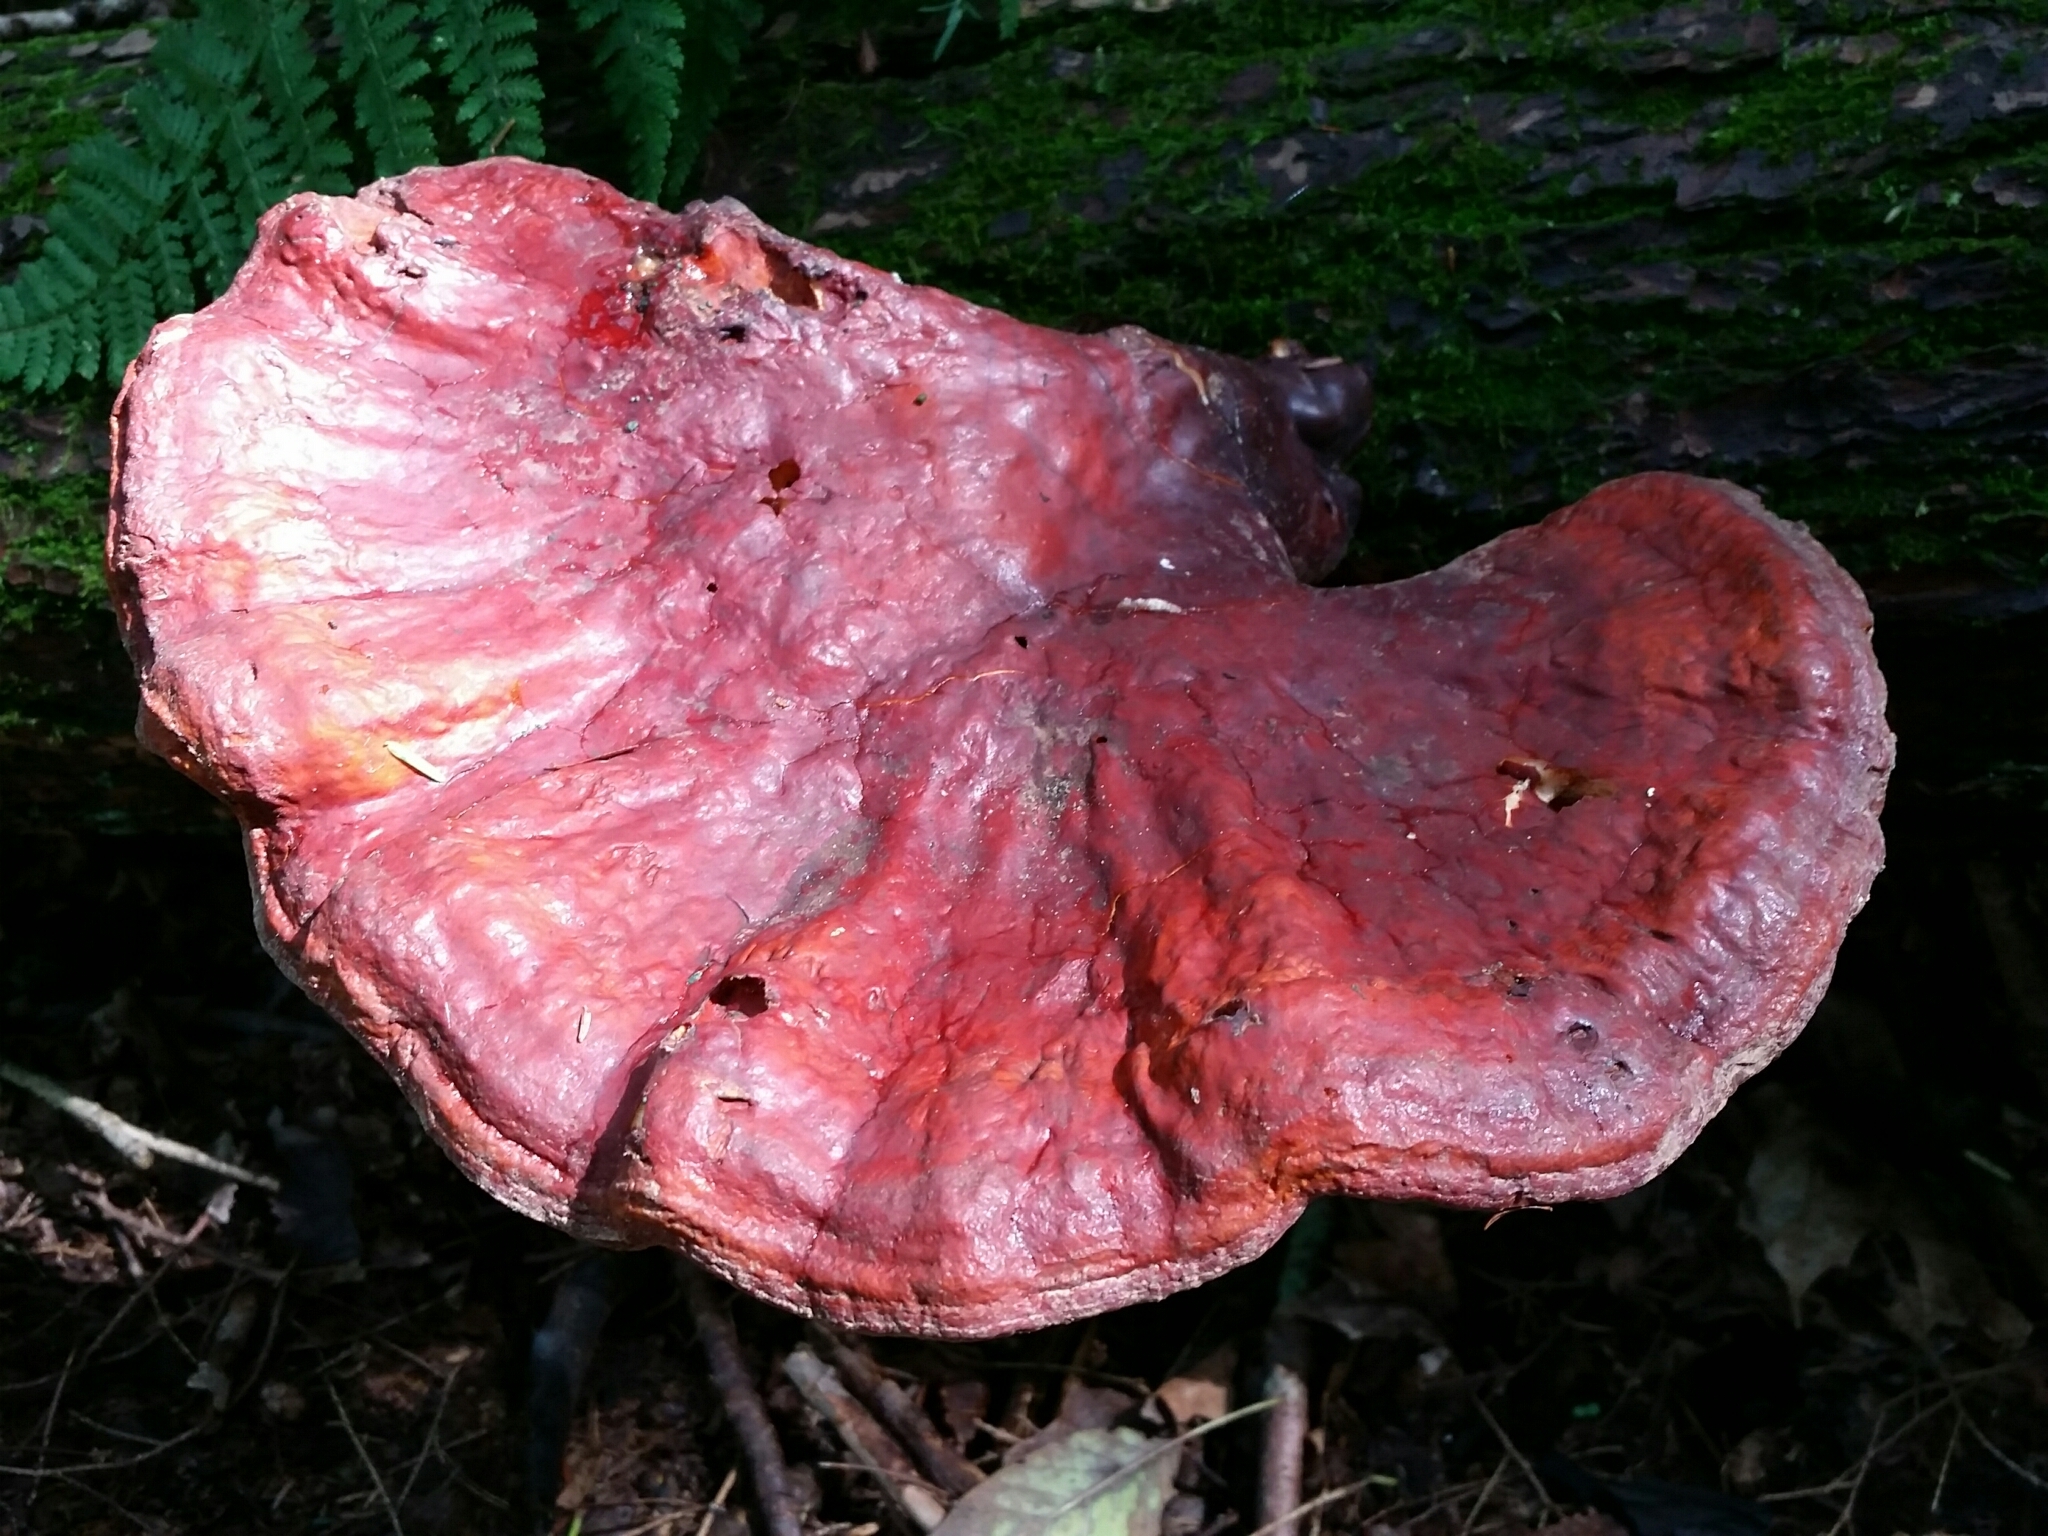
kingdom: Fungi
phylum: Basidiomycota
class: Agaricomycetes
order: Polyporales
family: Polyporaceae
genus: Ganoderma
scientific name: Ganoderma tsugae
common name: Hemlock varnish shelf
